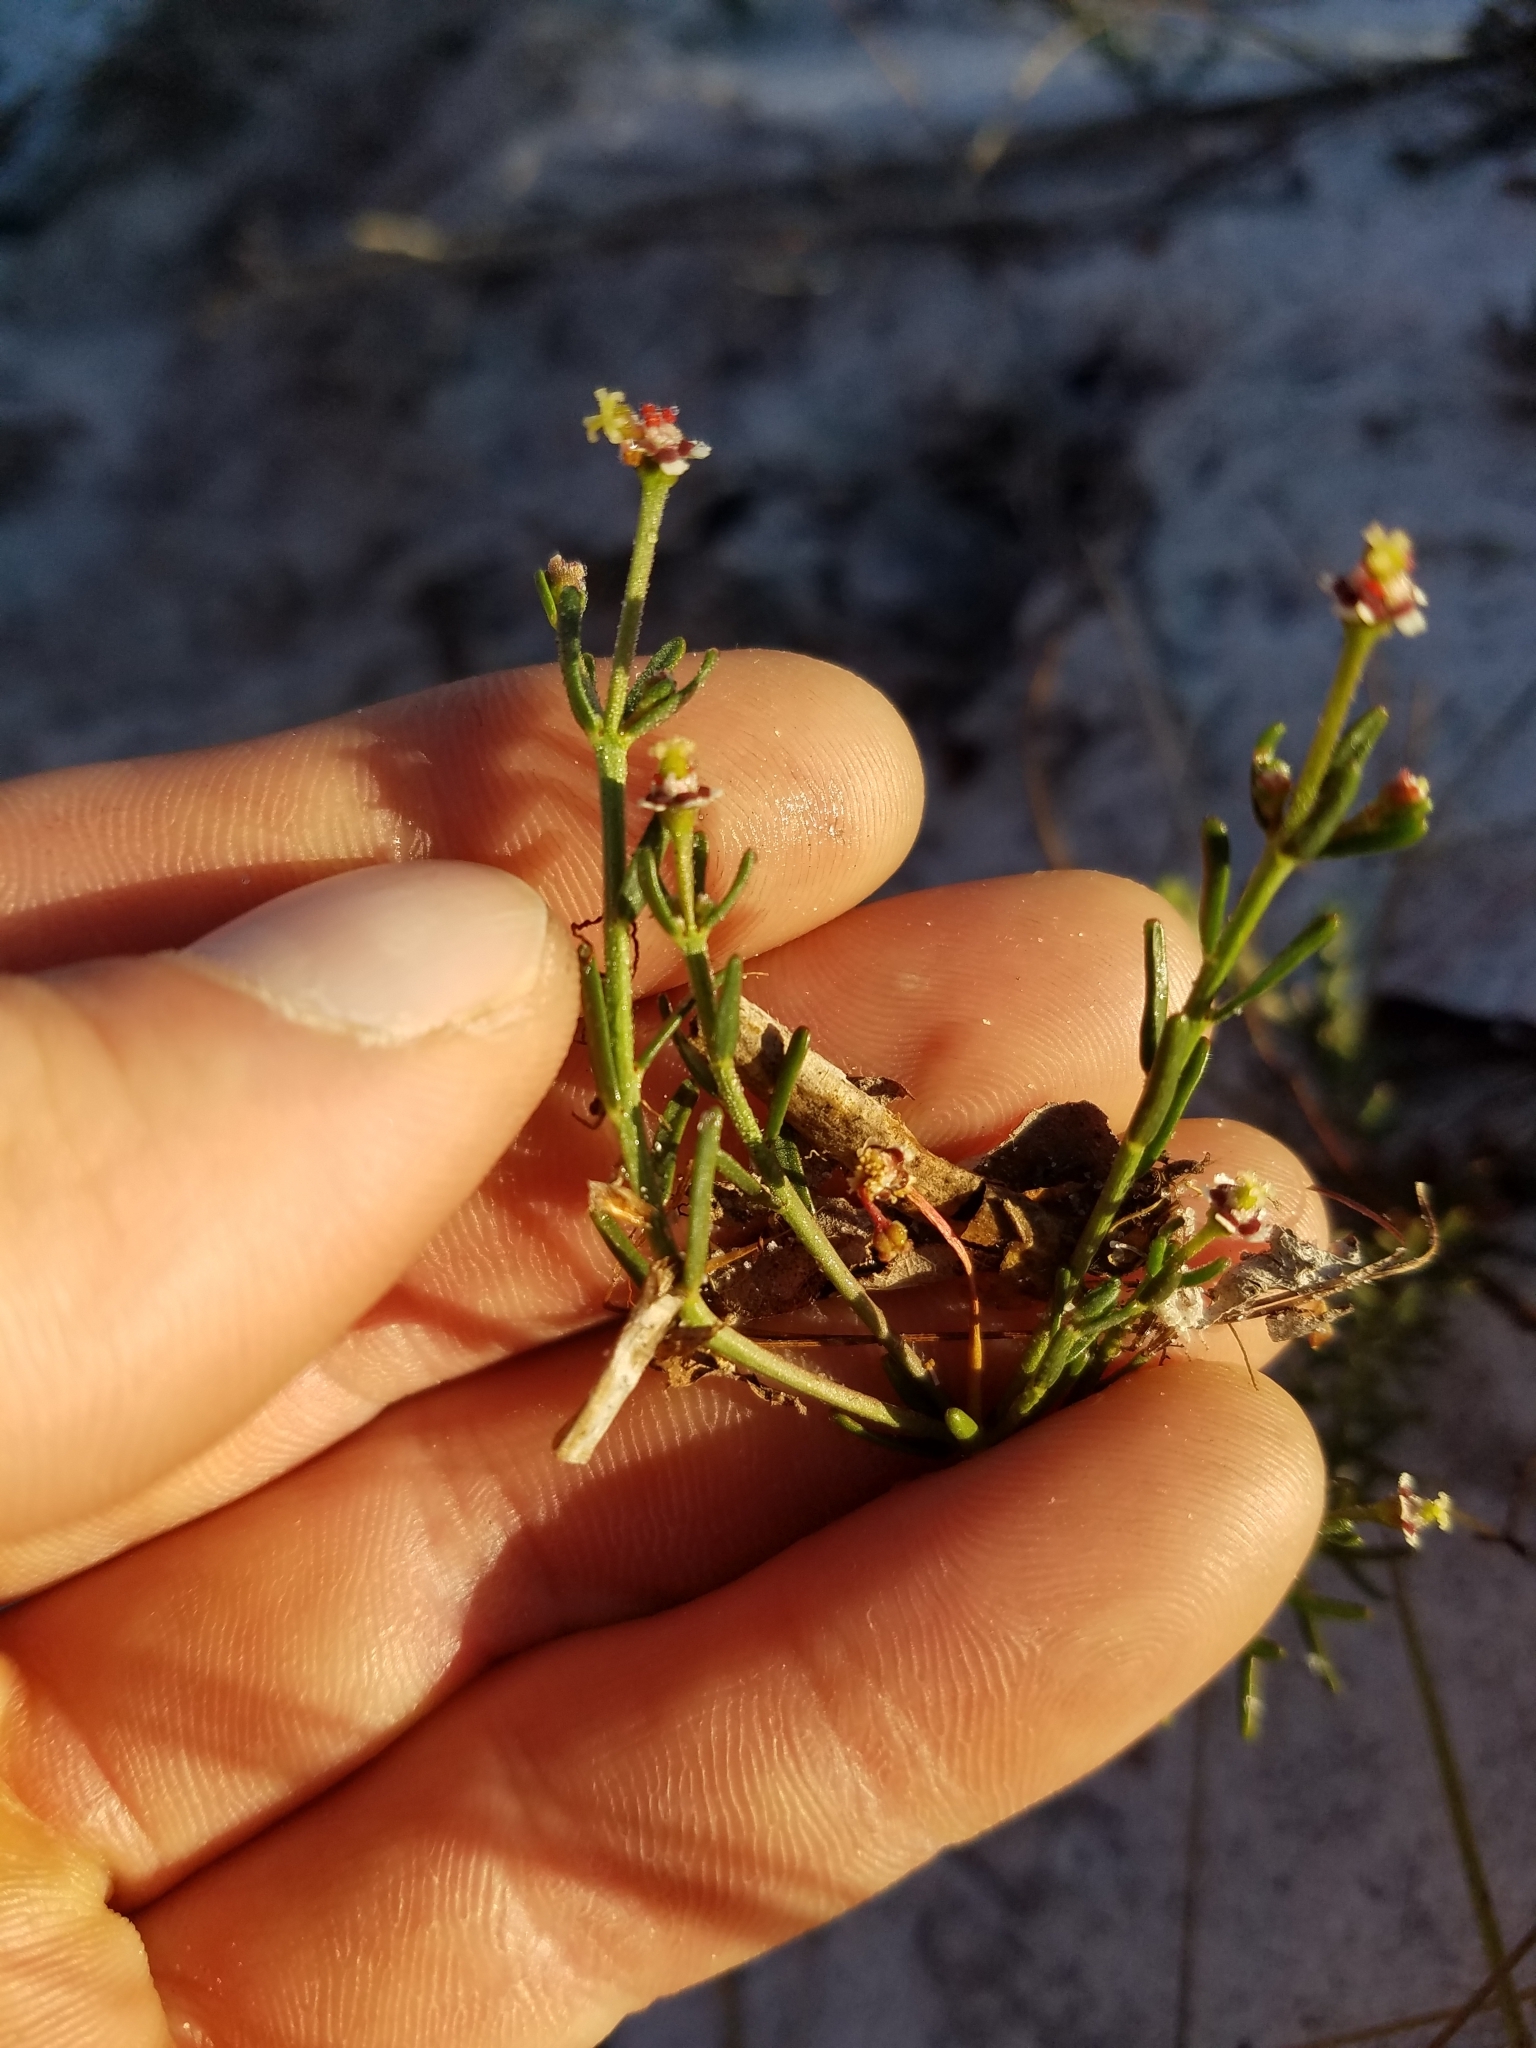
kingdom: Plantae
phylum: Tracheophyta
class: Magnoliopsida
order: Malpighiales
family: Euphorbiaceae
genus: Euphorbia
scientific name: Euphorbia polyphylla
